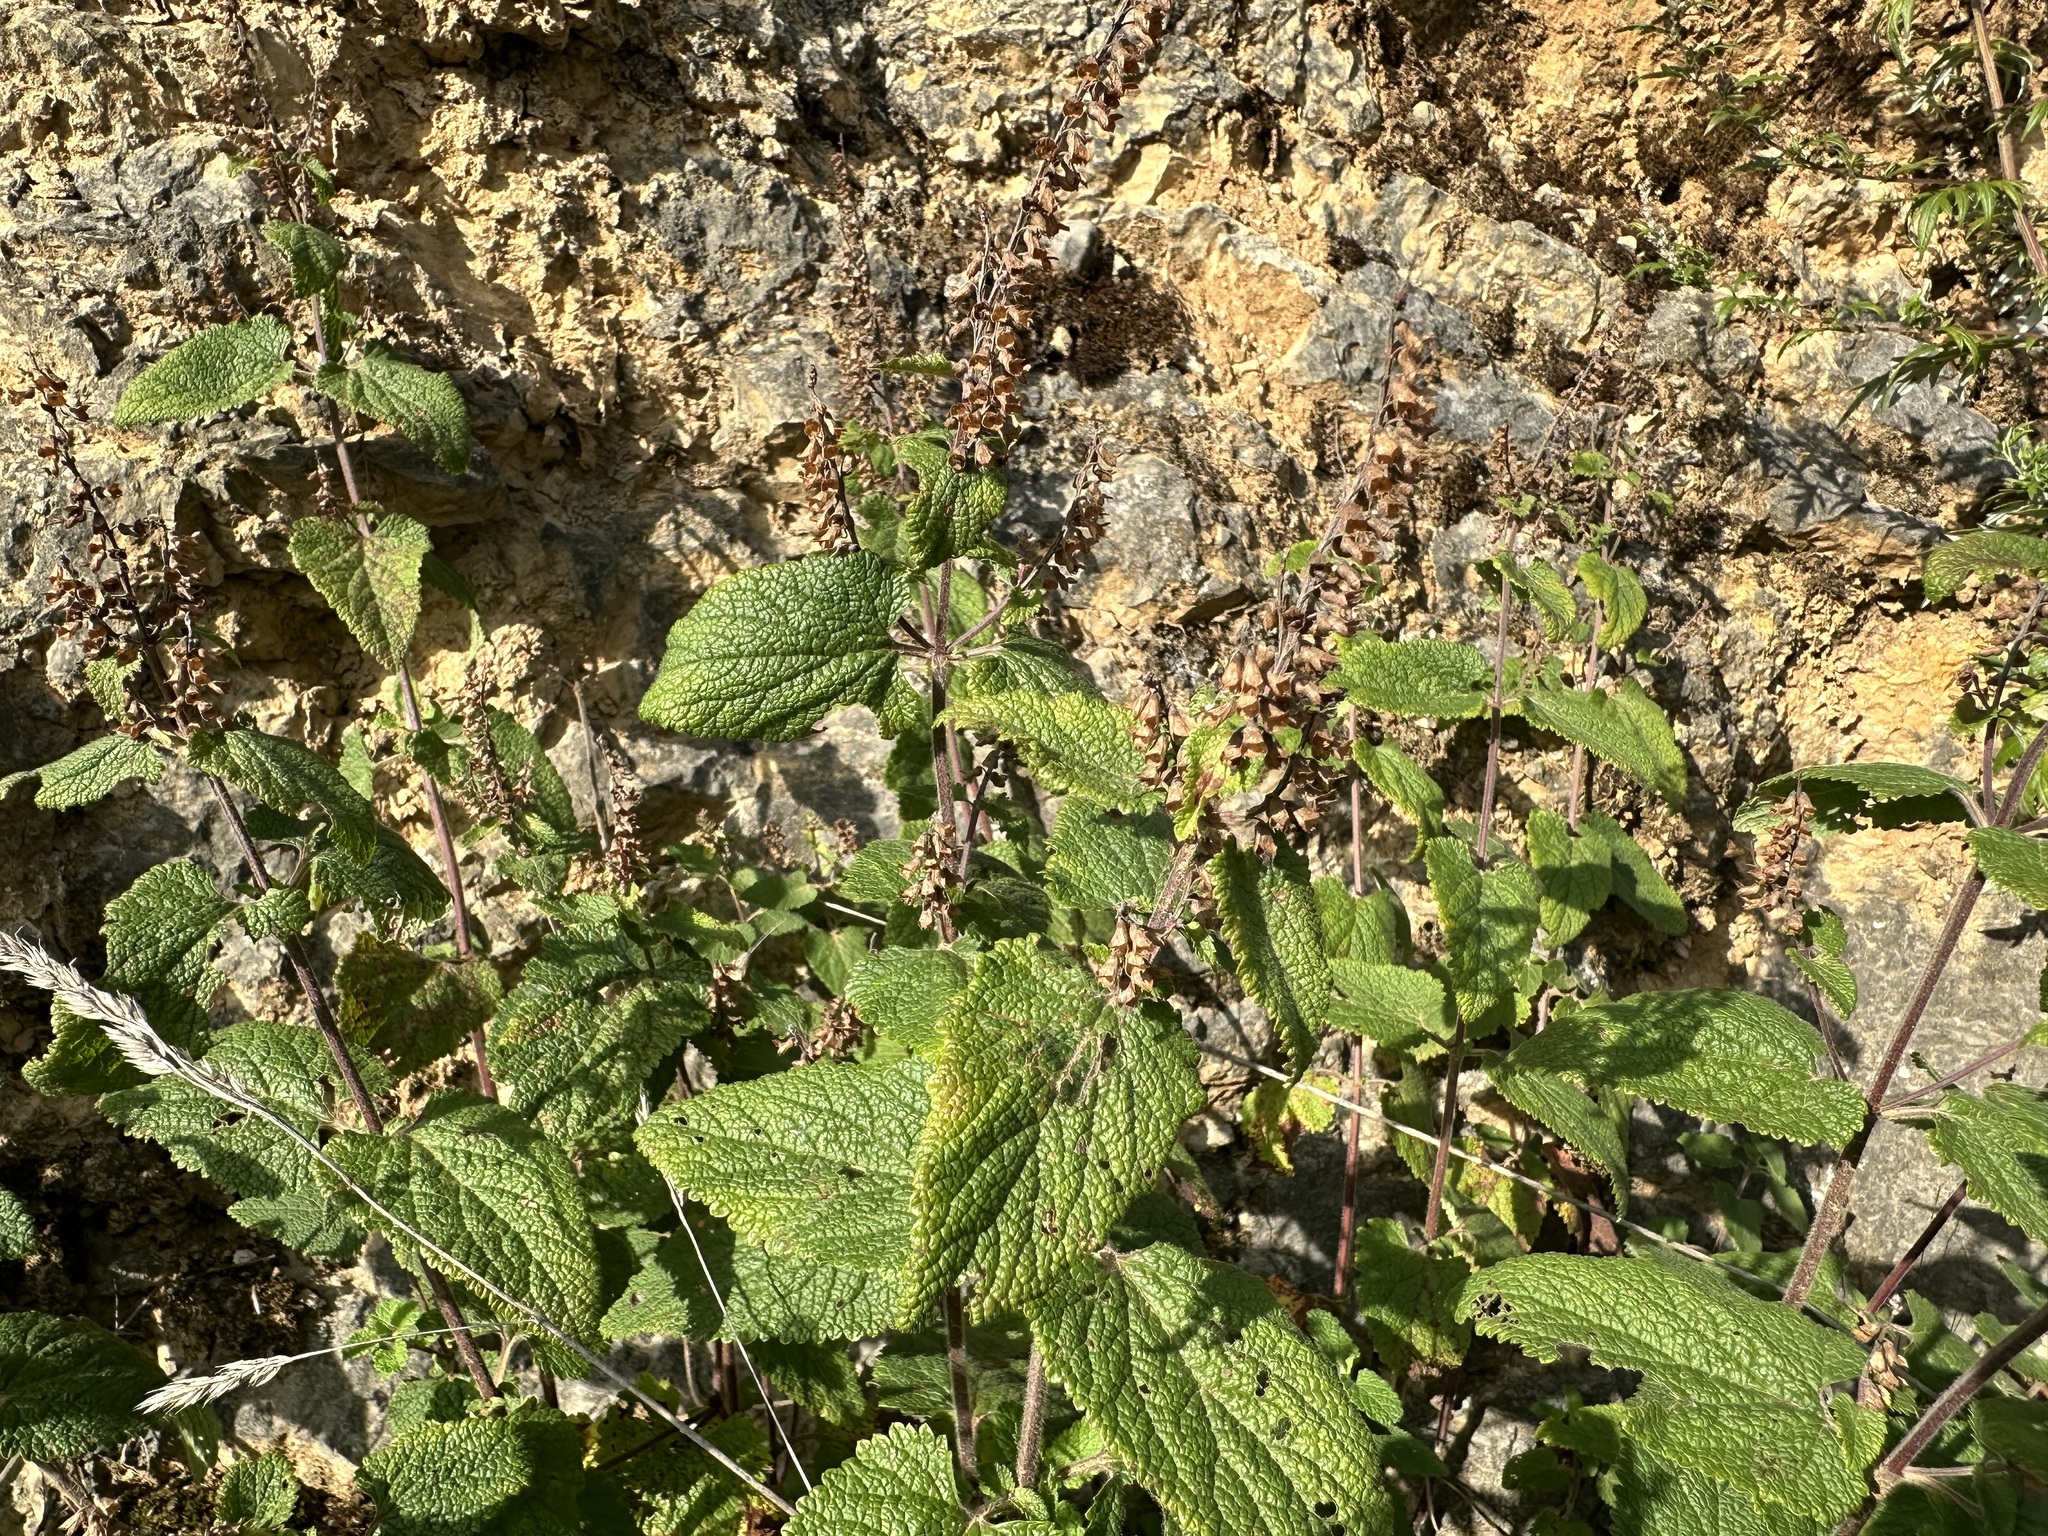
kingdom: Plantae
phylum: Tracheophyta
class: Magnoliopsida
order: Lamiales
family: Lamiaceae
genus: Teucrium
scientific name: Teucrium scorodonia
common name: Woodland germander
